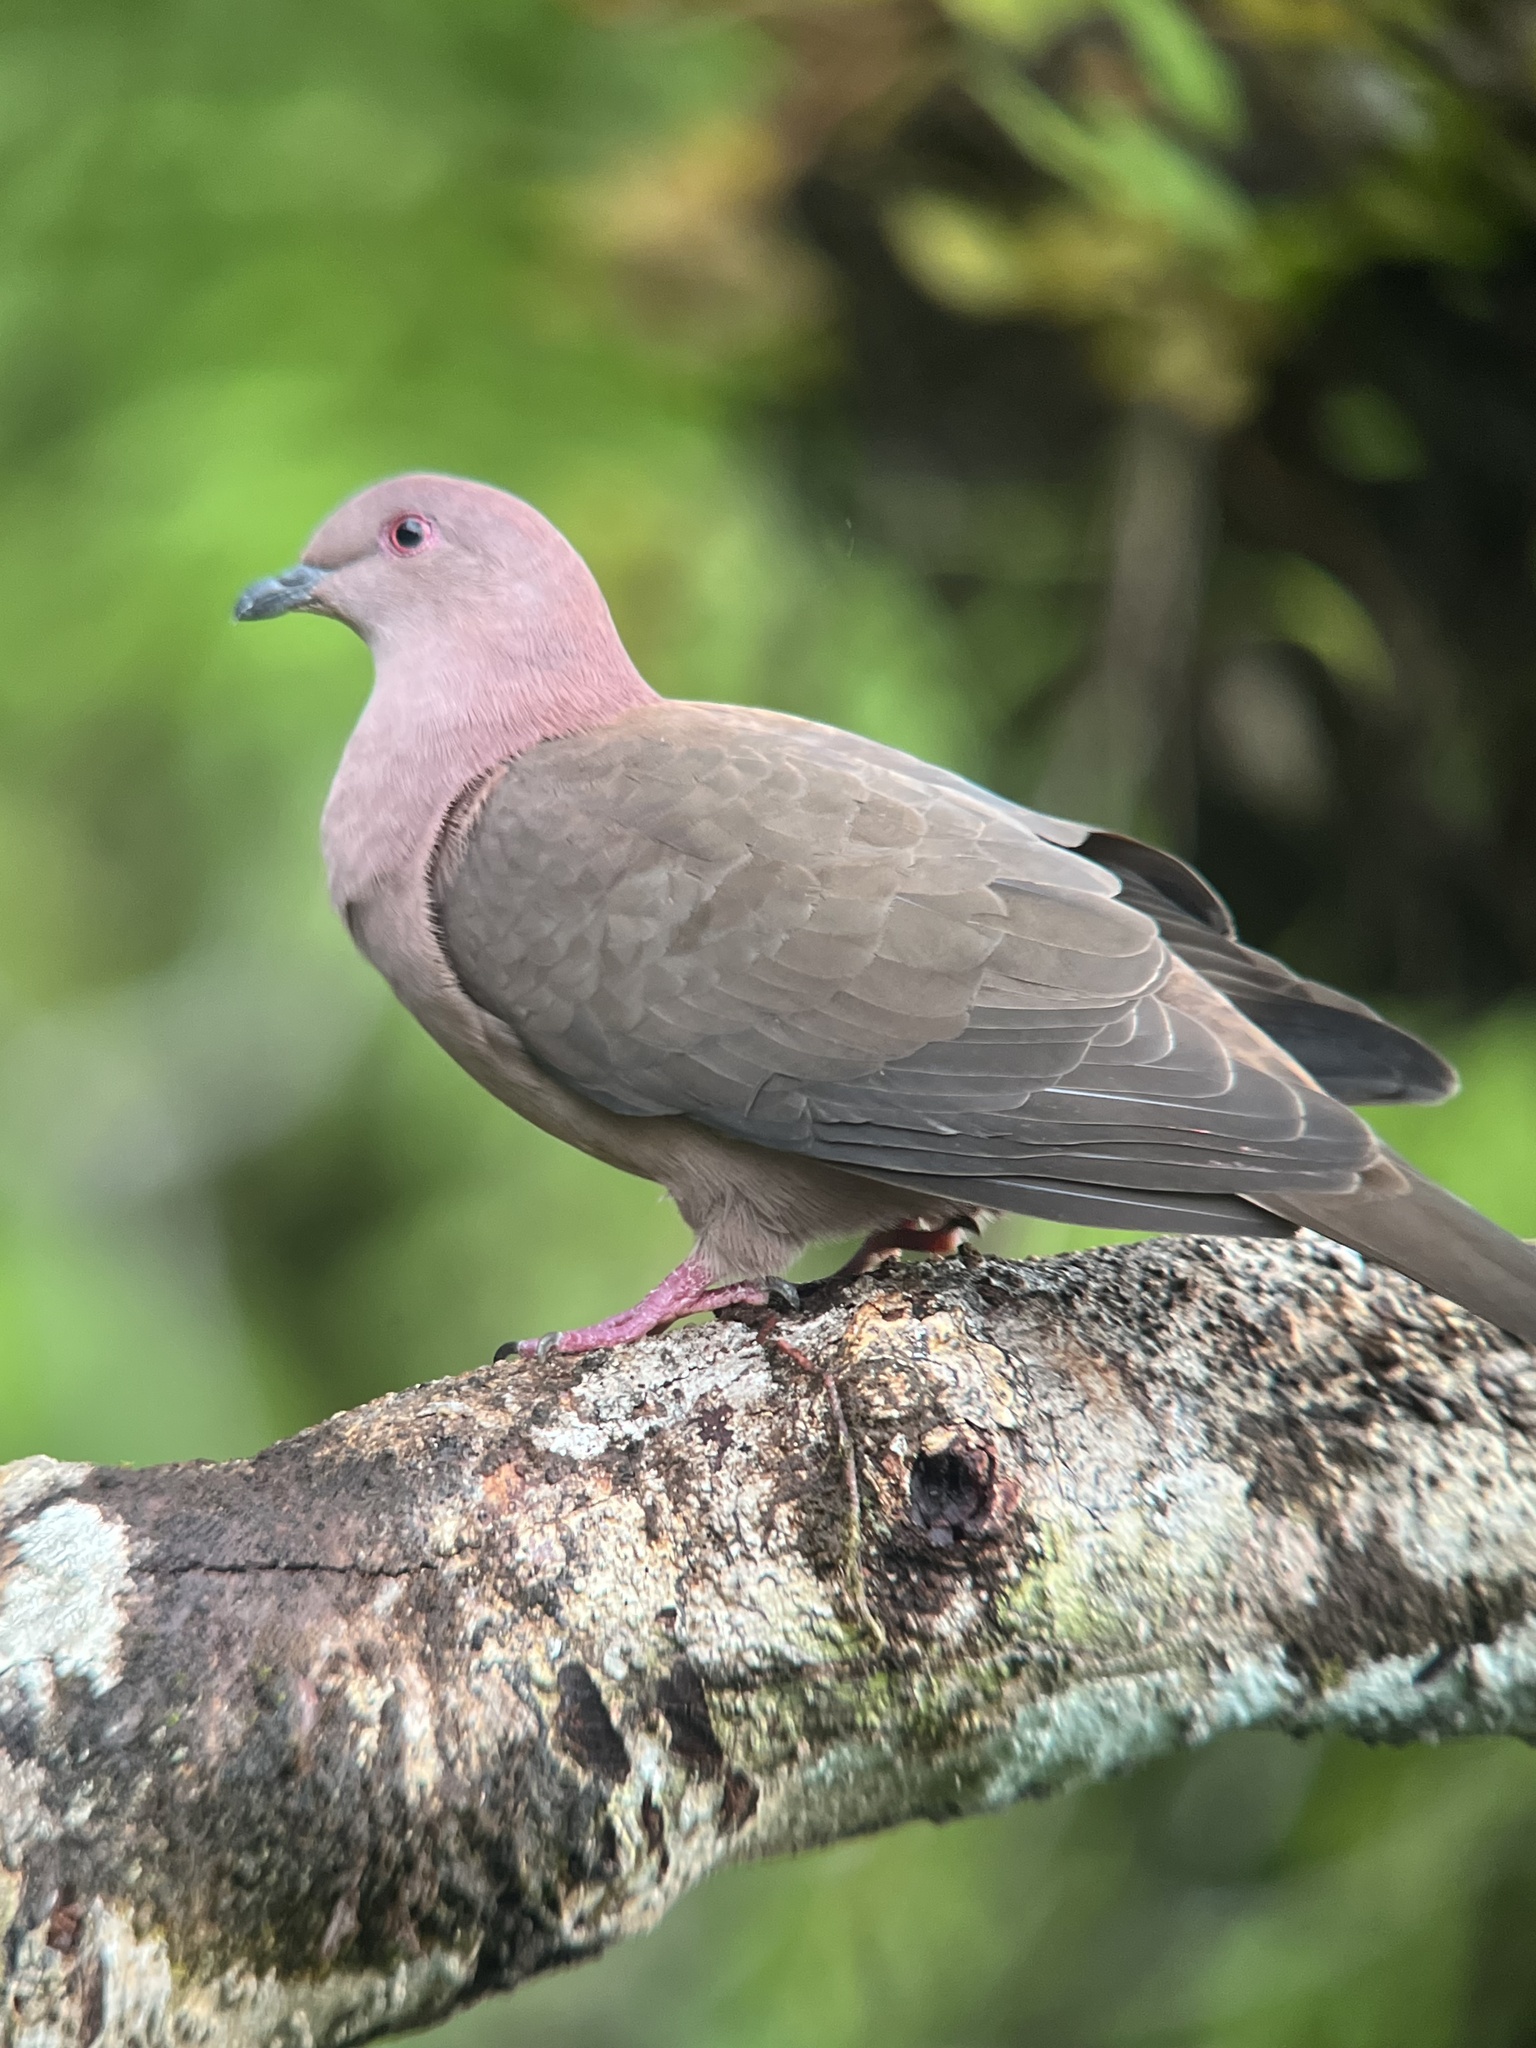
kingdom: Animalia
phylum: Chordata
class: Aves
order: Columbiformes
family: Columbidae
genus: Patagioenas
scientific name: Patagioenas nigrirostris
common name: Short-billed pigeon
